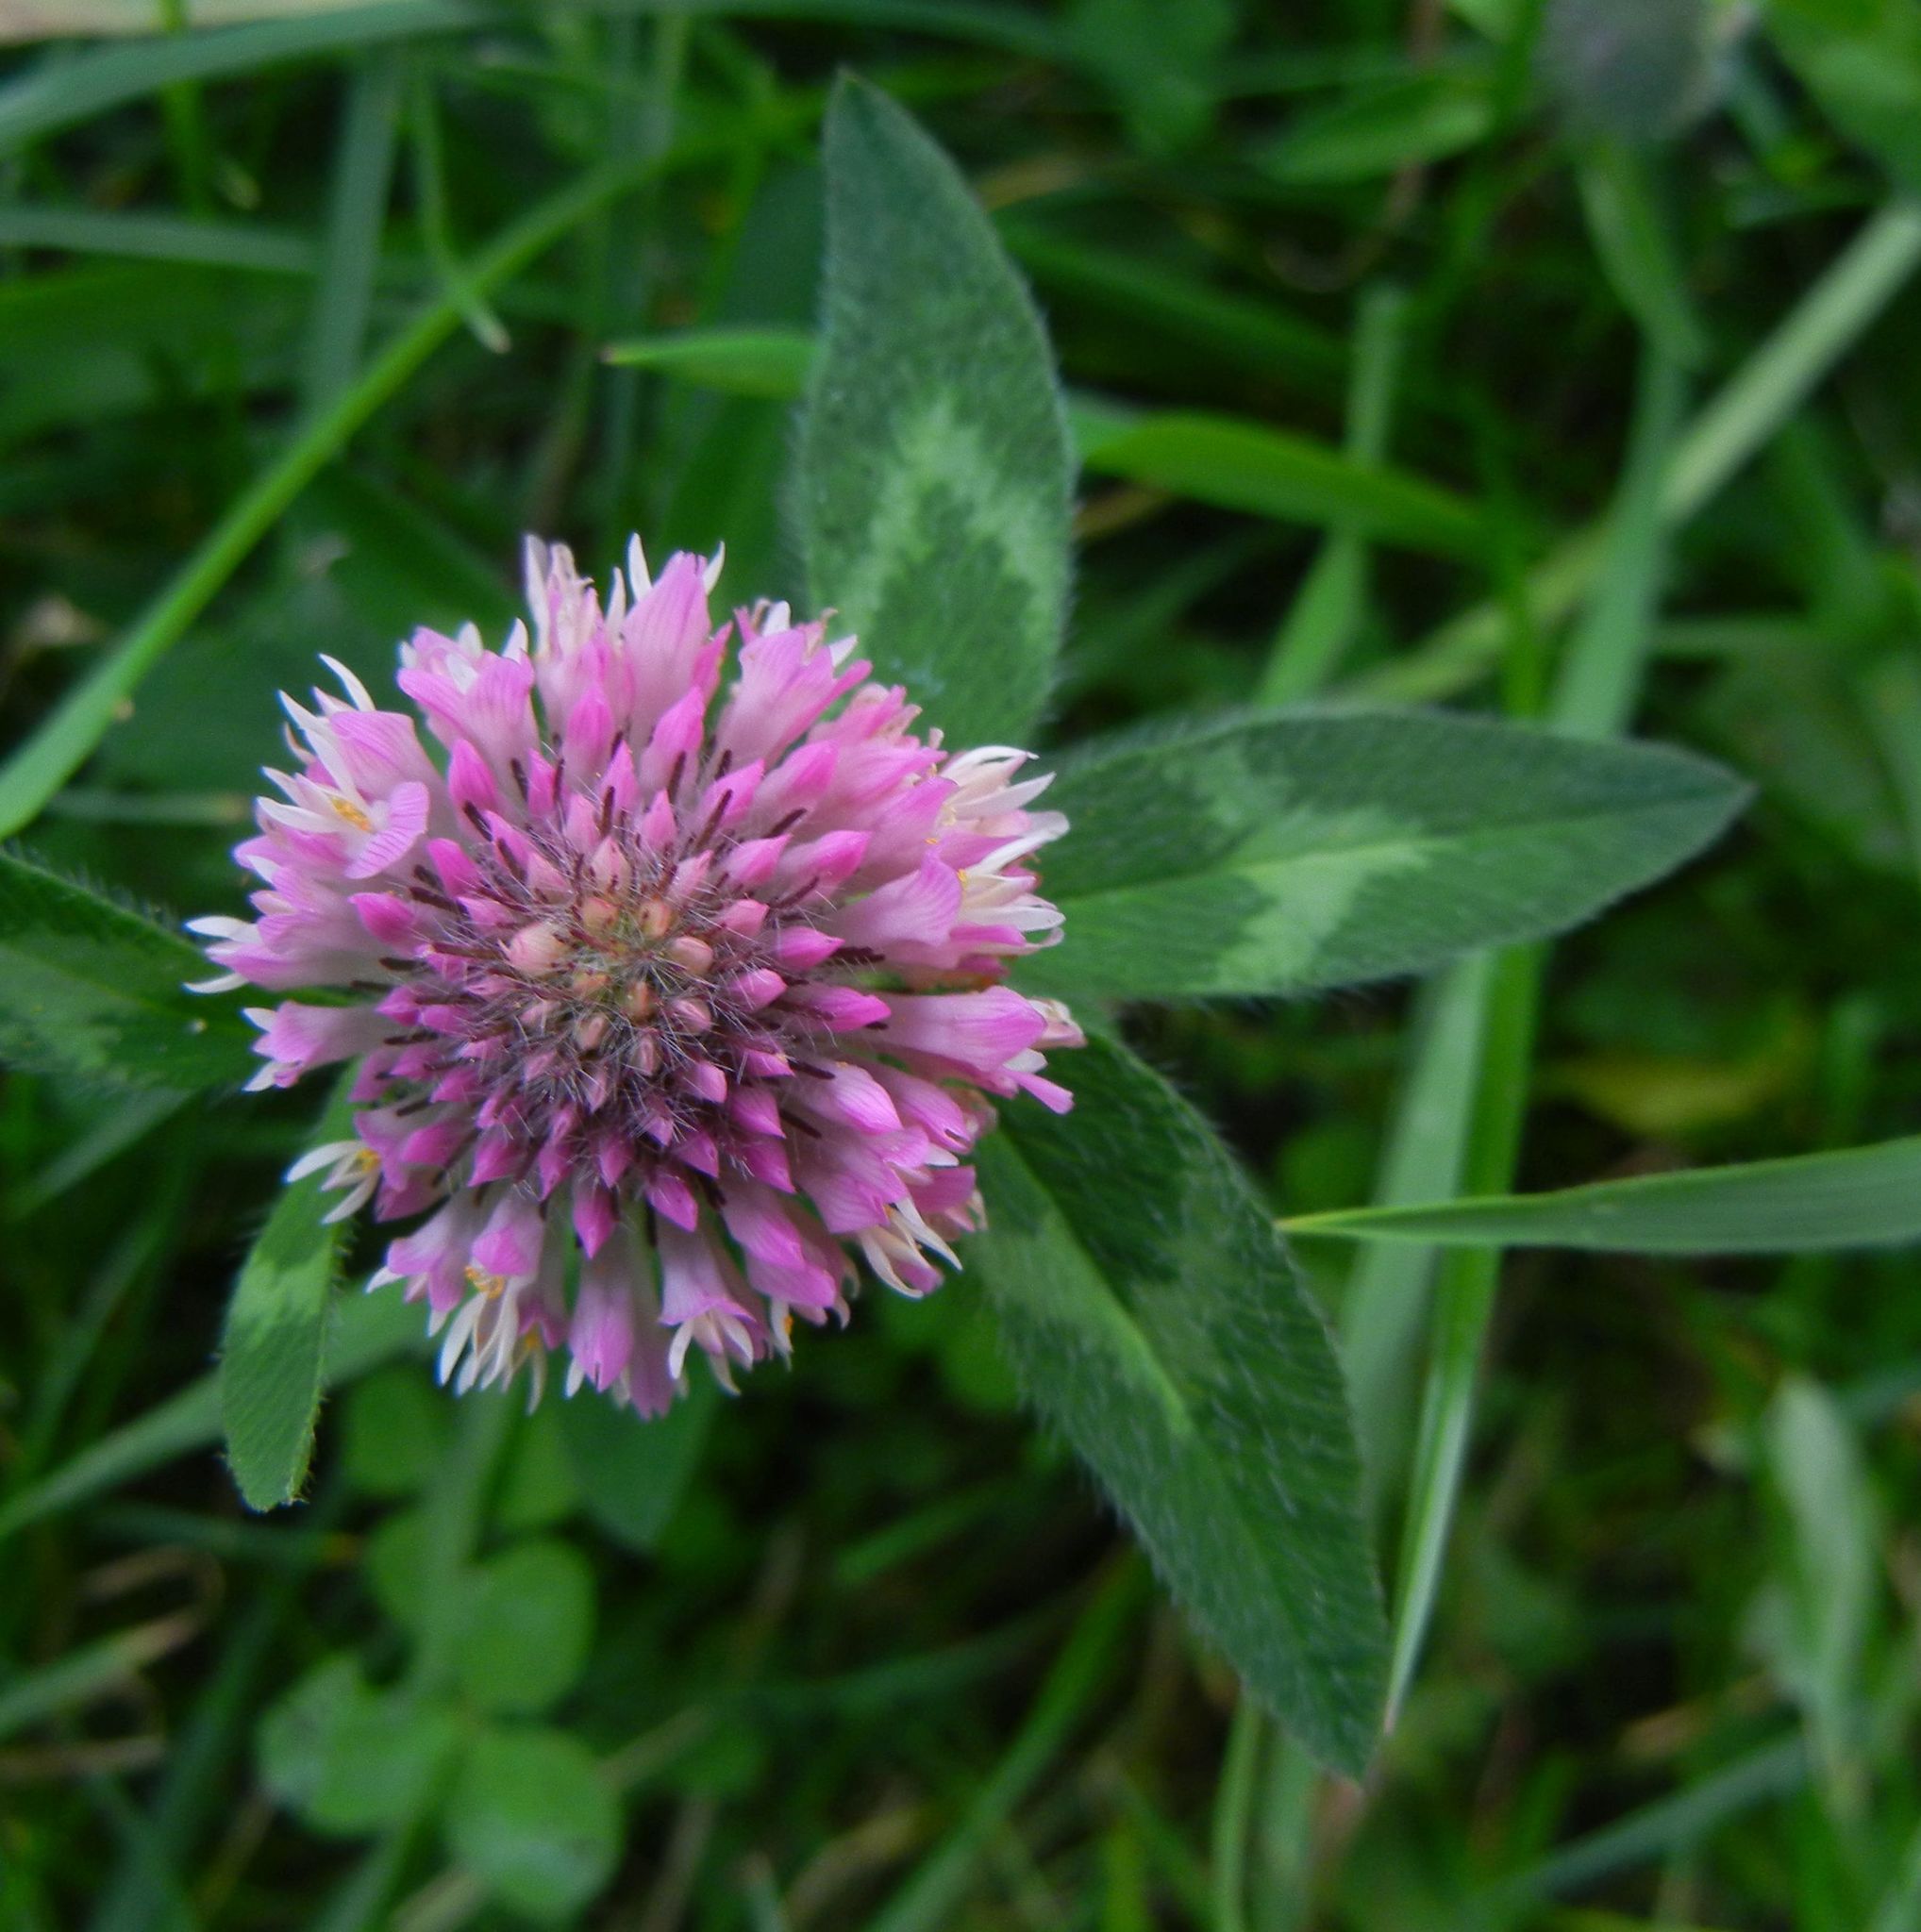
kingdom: Plantae
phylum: Tracheophyta
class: Magnoliopsida
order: Fabales
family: Fabaceae
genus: Trifolium
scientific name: Trifolium pratense
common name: Red clover
